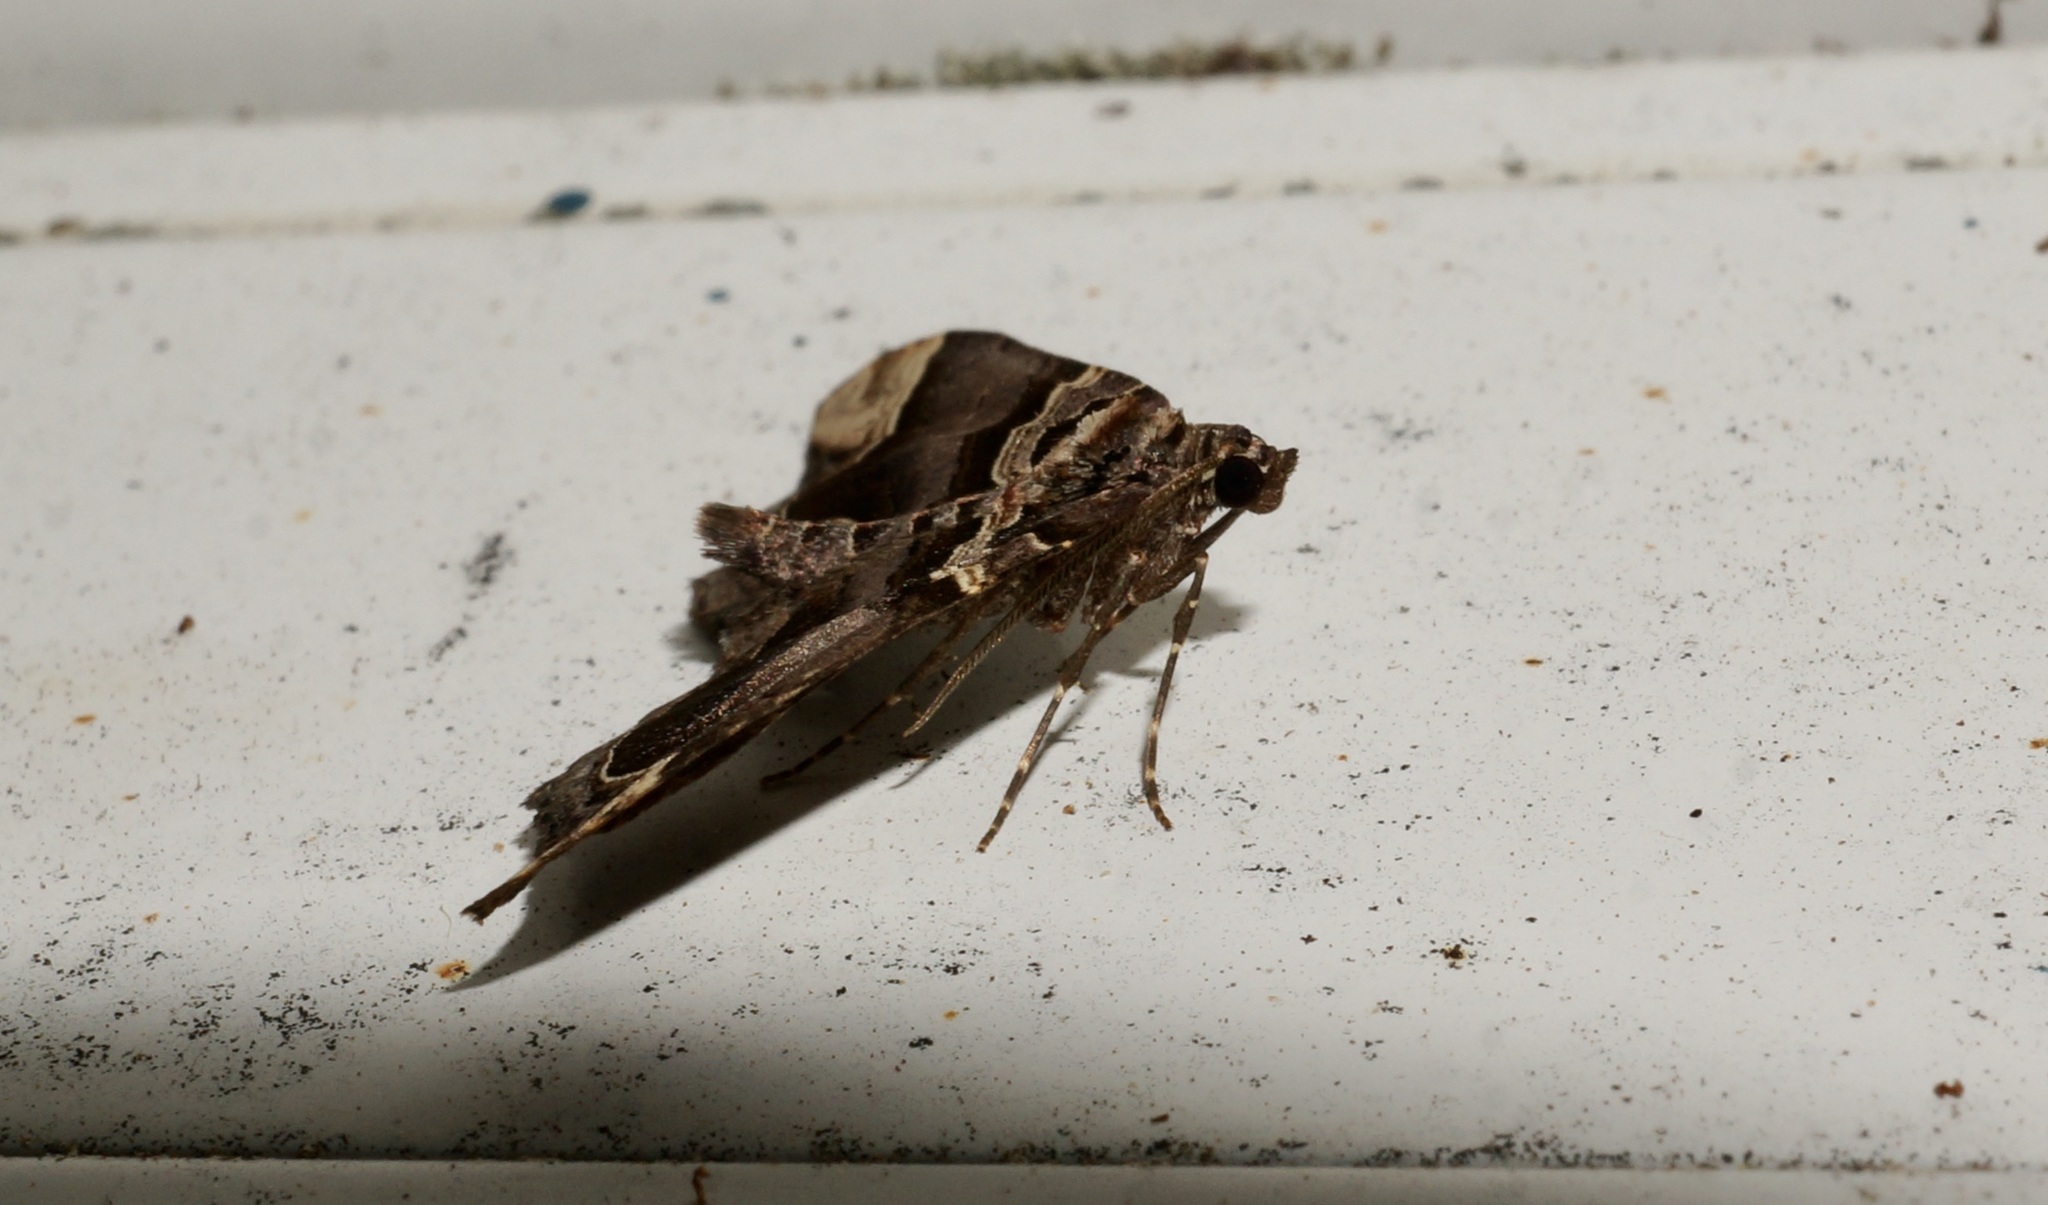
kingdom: Animalia
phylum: Arthropoda
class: Insecta
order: Lepidoptera
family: Geometridae
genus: Asaphodes
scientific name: Asaphodes chlamydota
